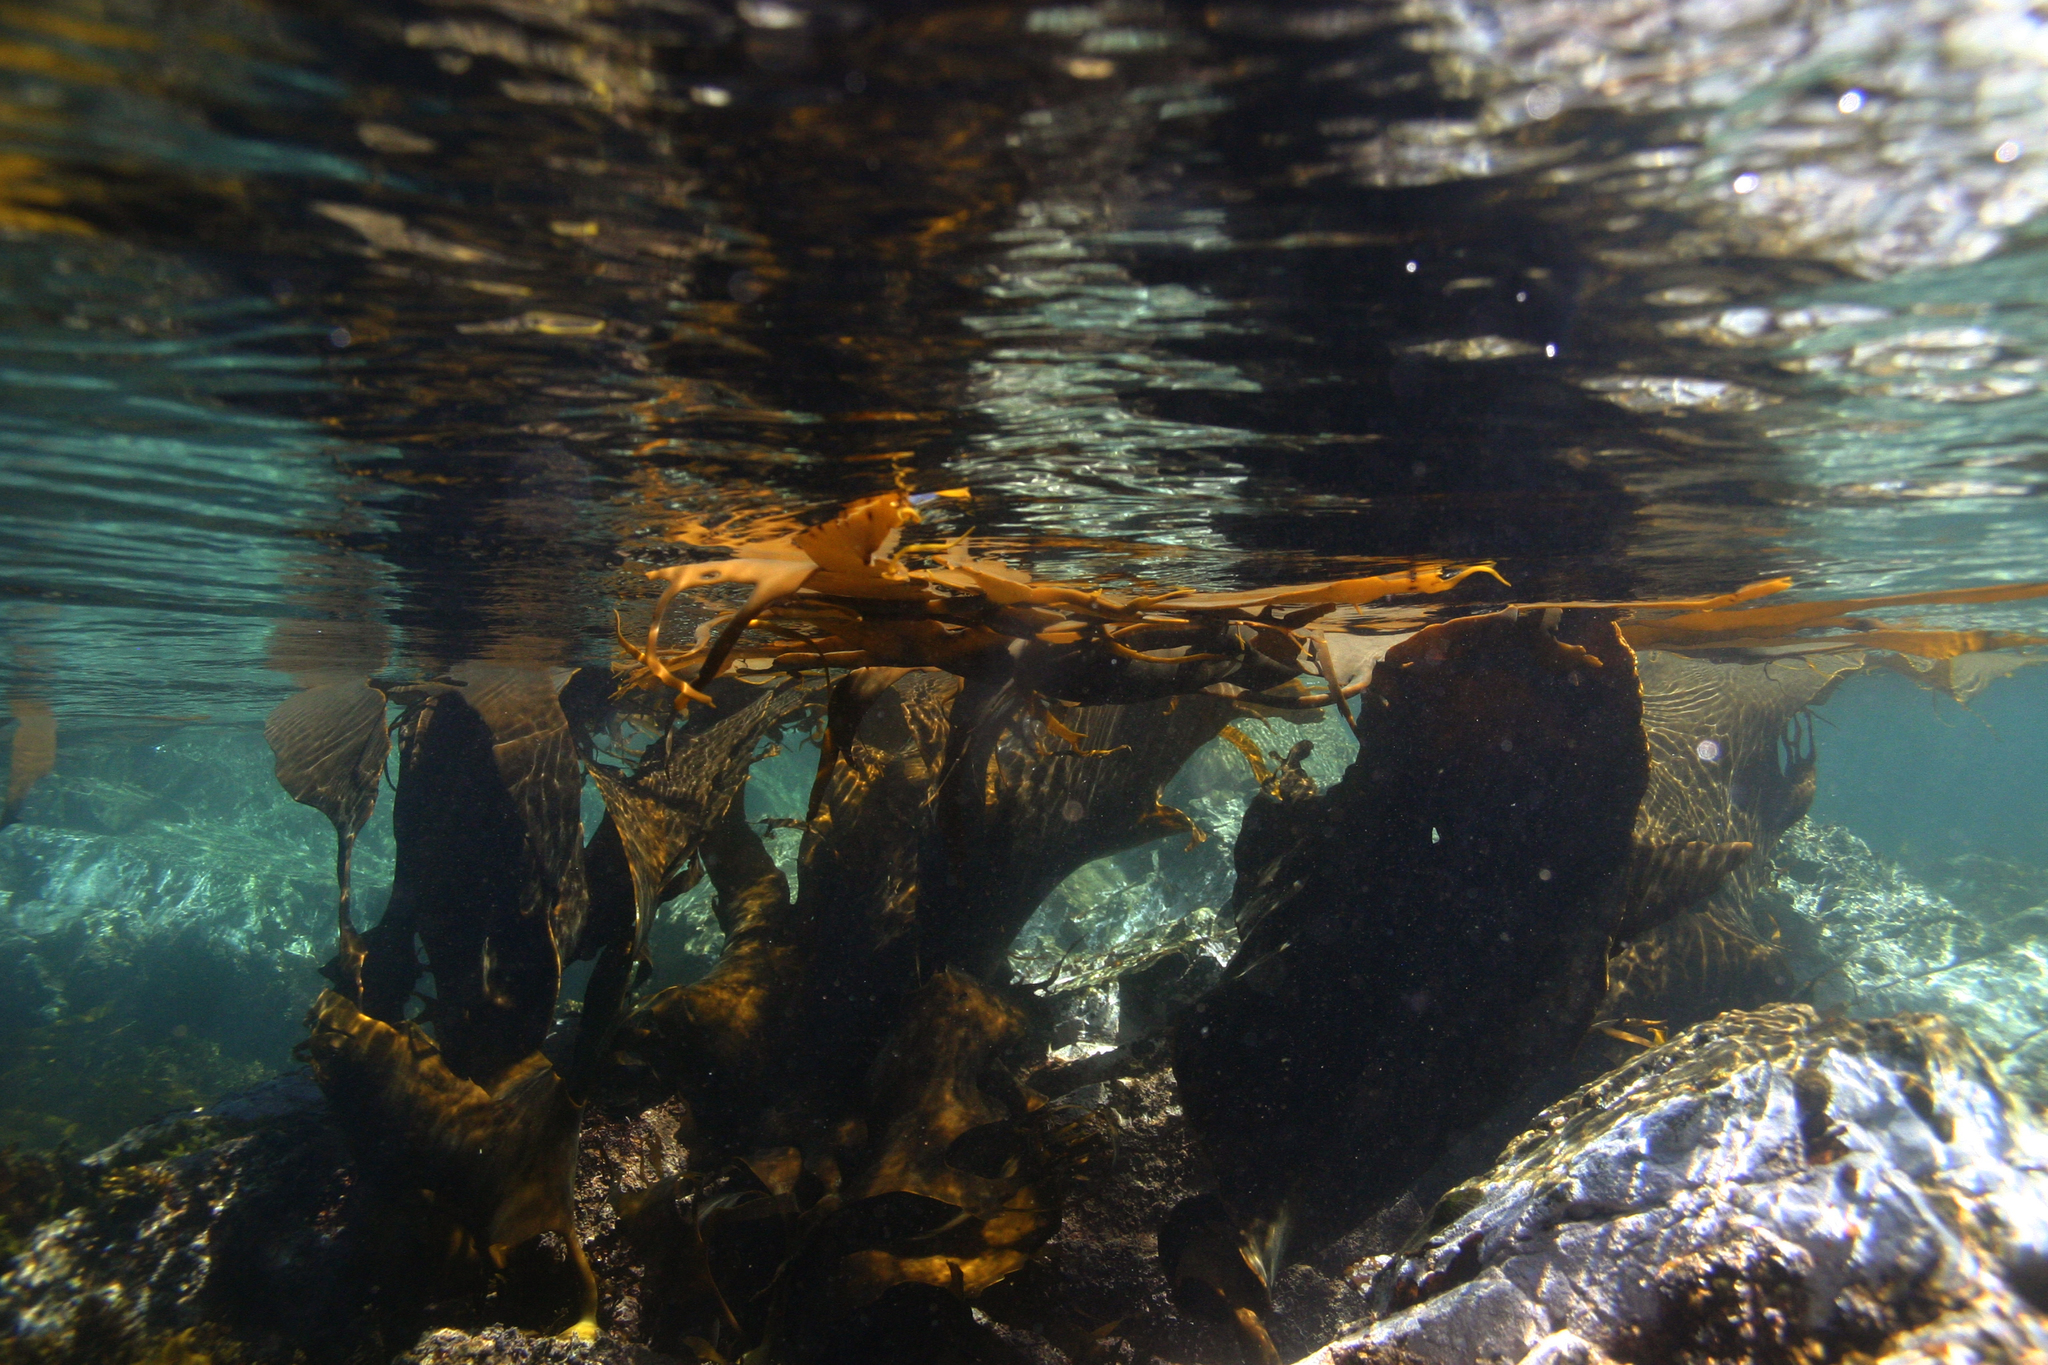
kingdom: Chromista
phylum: Ochrophyta
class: Phaeophyceae
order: Fucales
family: Durvillaeaceae
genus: Durvillaea
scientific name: Durvillaea antarctica
